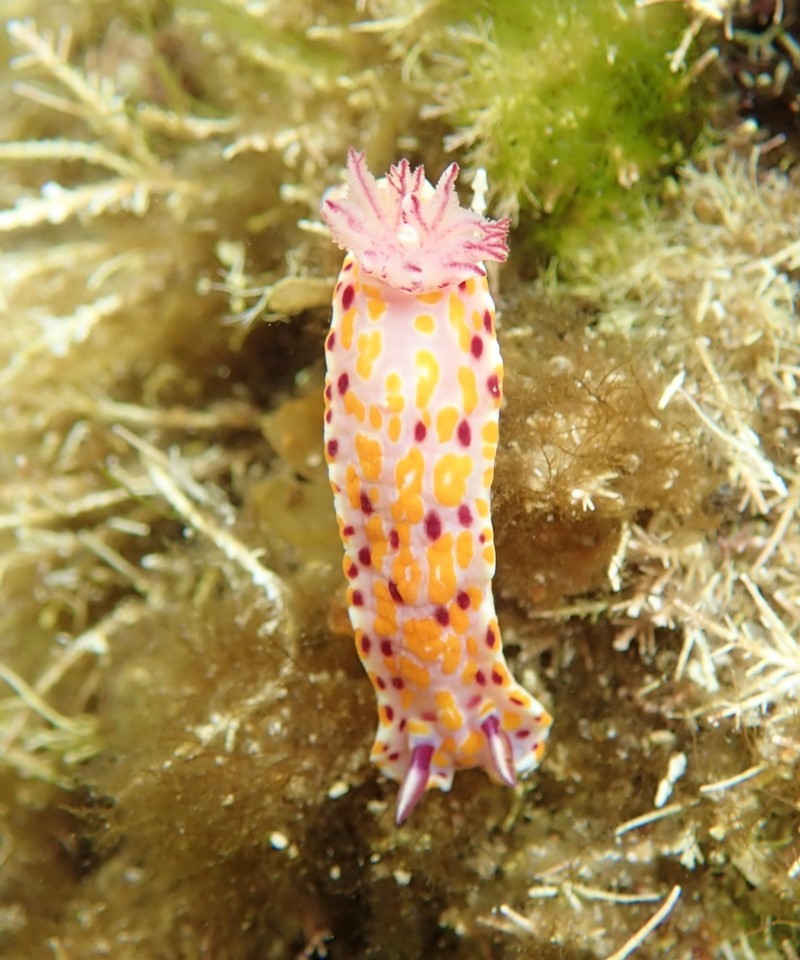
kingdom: Animalia
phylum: Mollusca
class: Gastropoda
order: Nudibranchia
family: Chromodorididae
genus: Ceratosoma
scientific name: Ceratosoma amoenum
